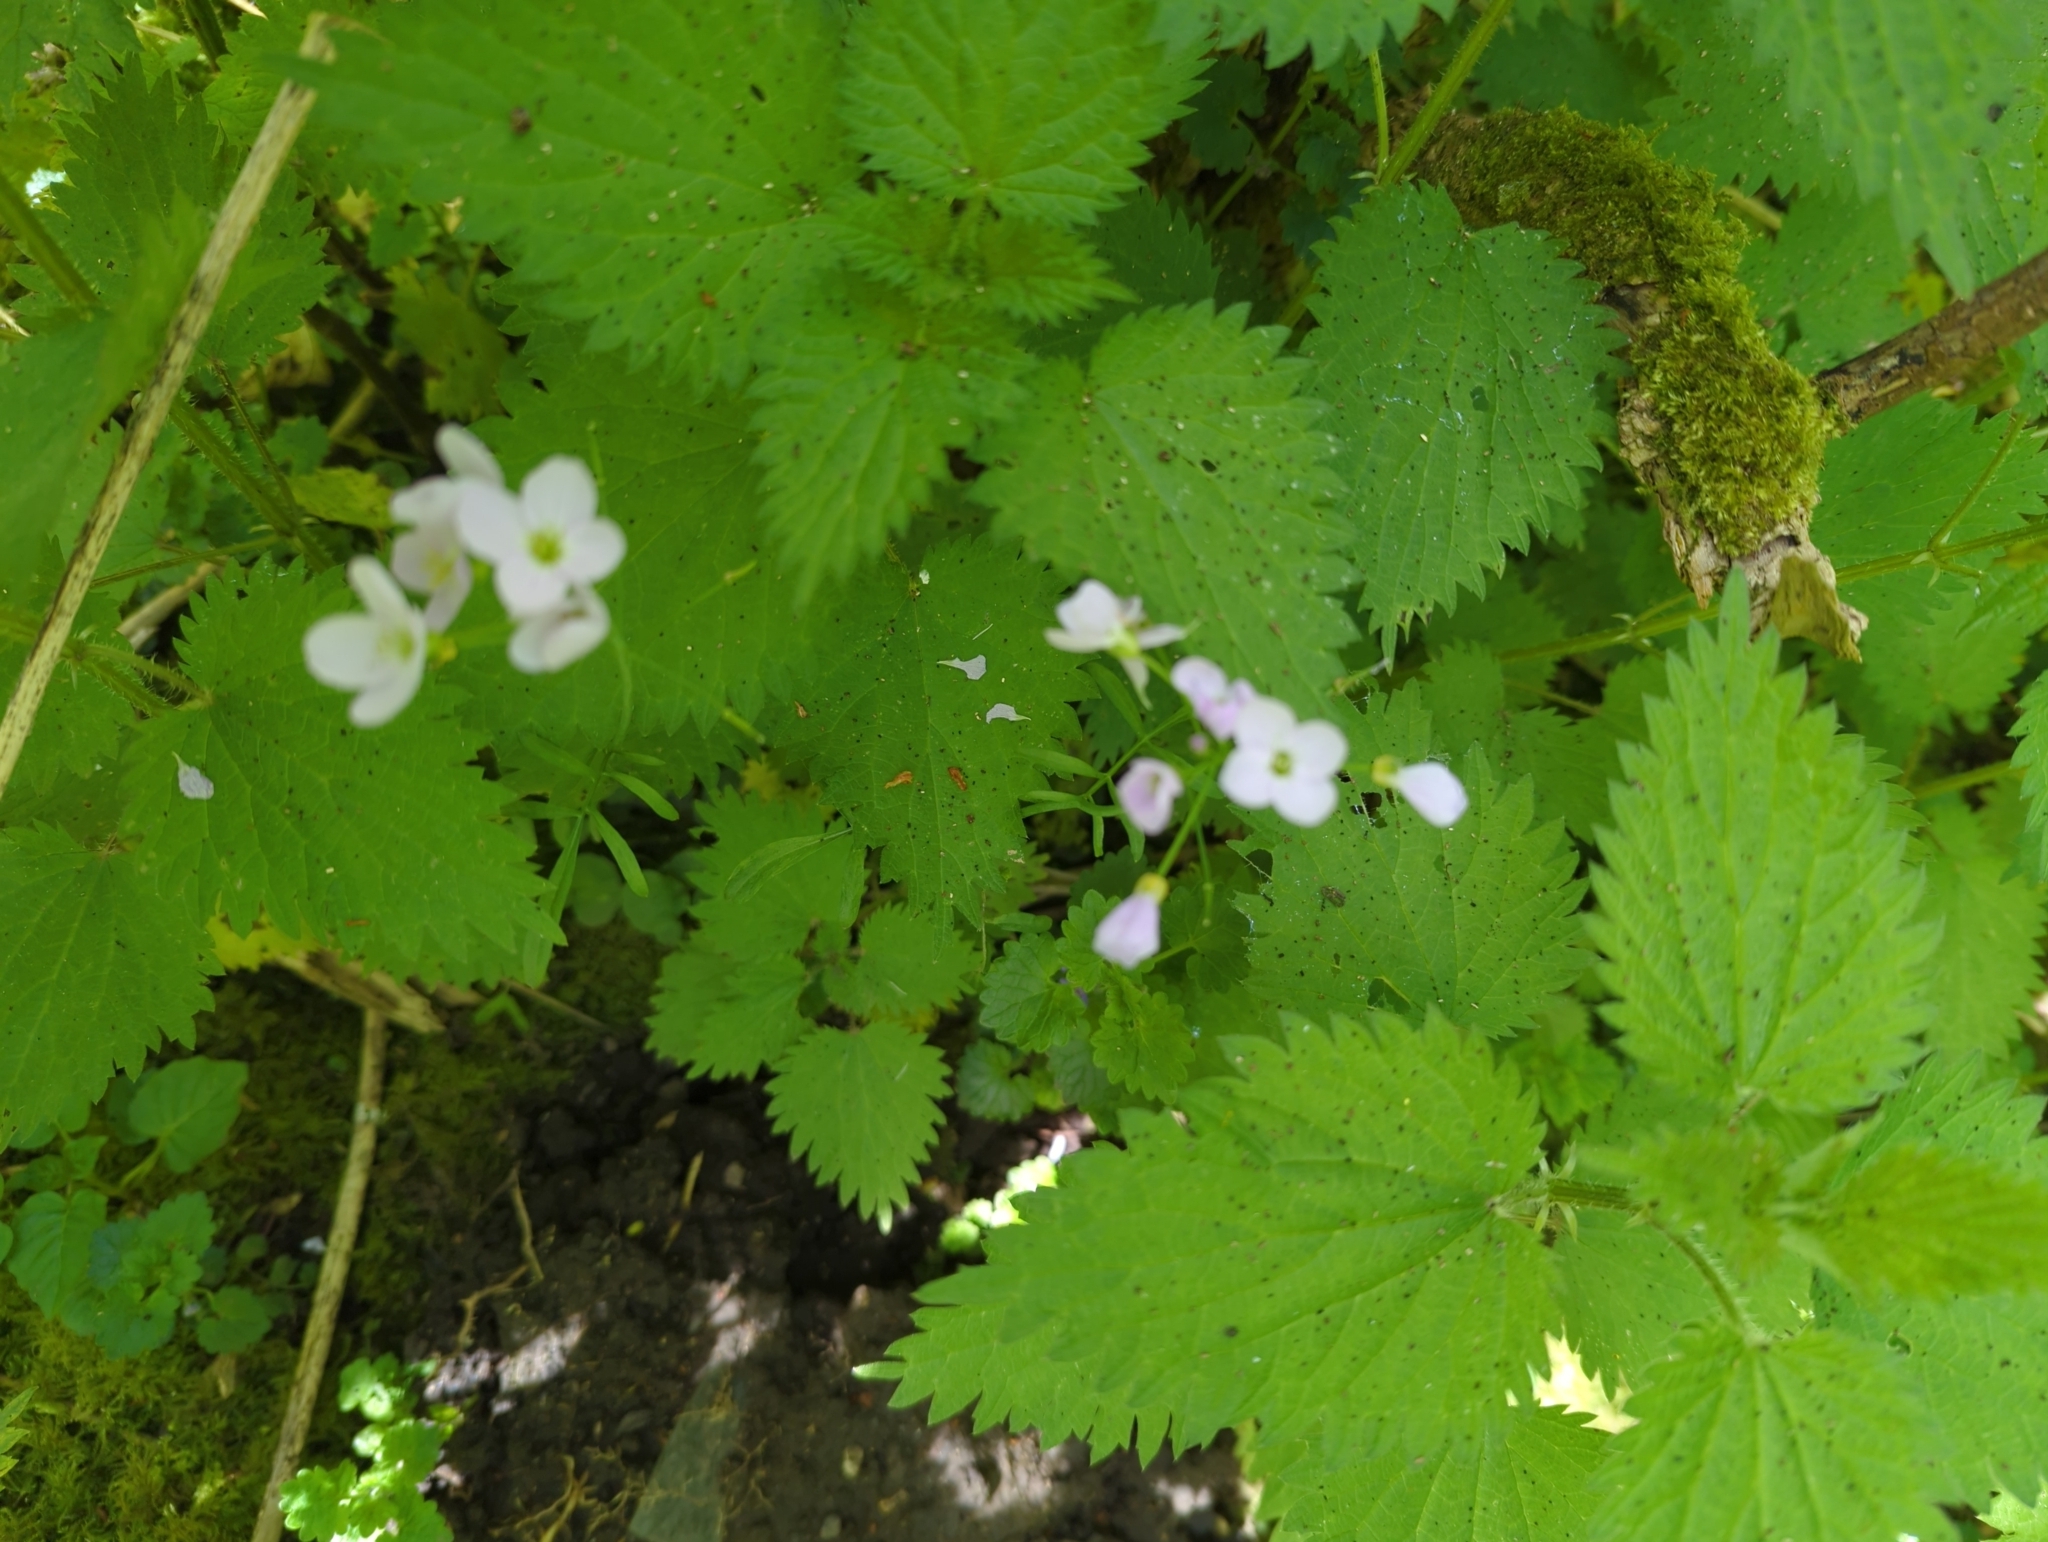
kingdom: Plantae
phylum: Tracheophyta
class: Magnoliopsida
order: Brassicales
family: Brassicaceae
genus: Cardamine
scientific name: Cardamine pratensis
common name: Cuckoo flower
